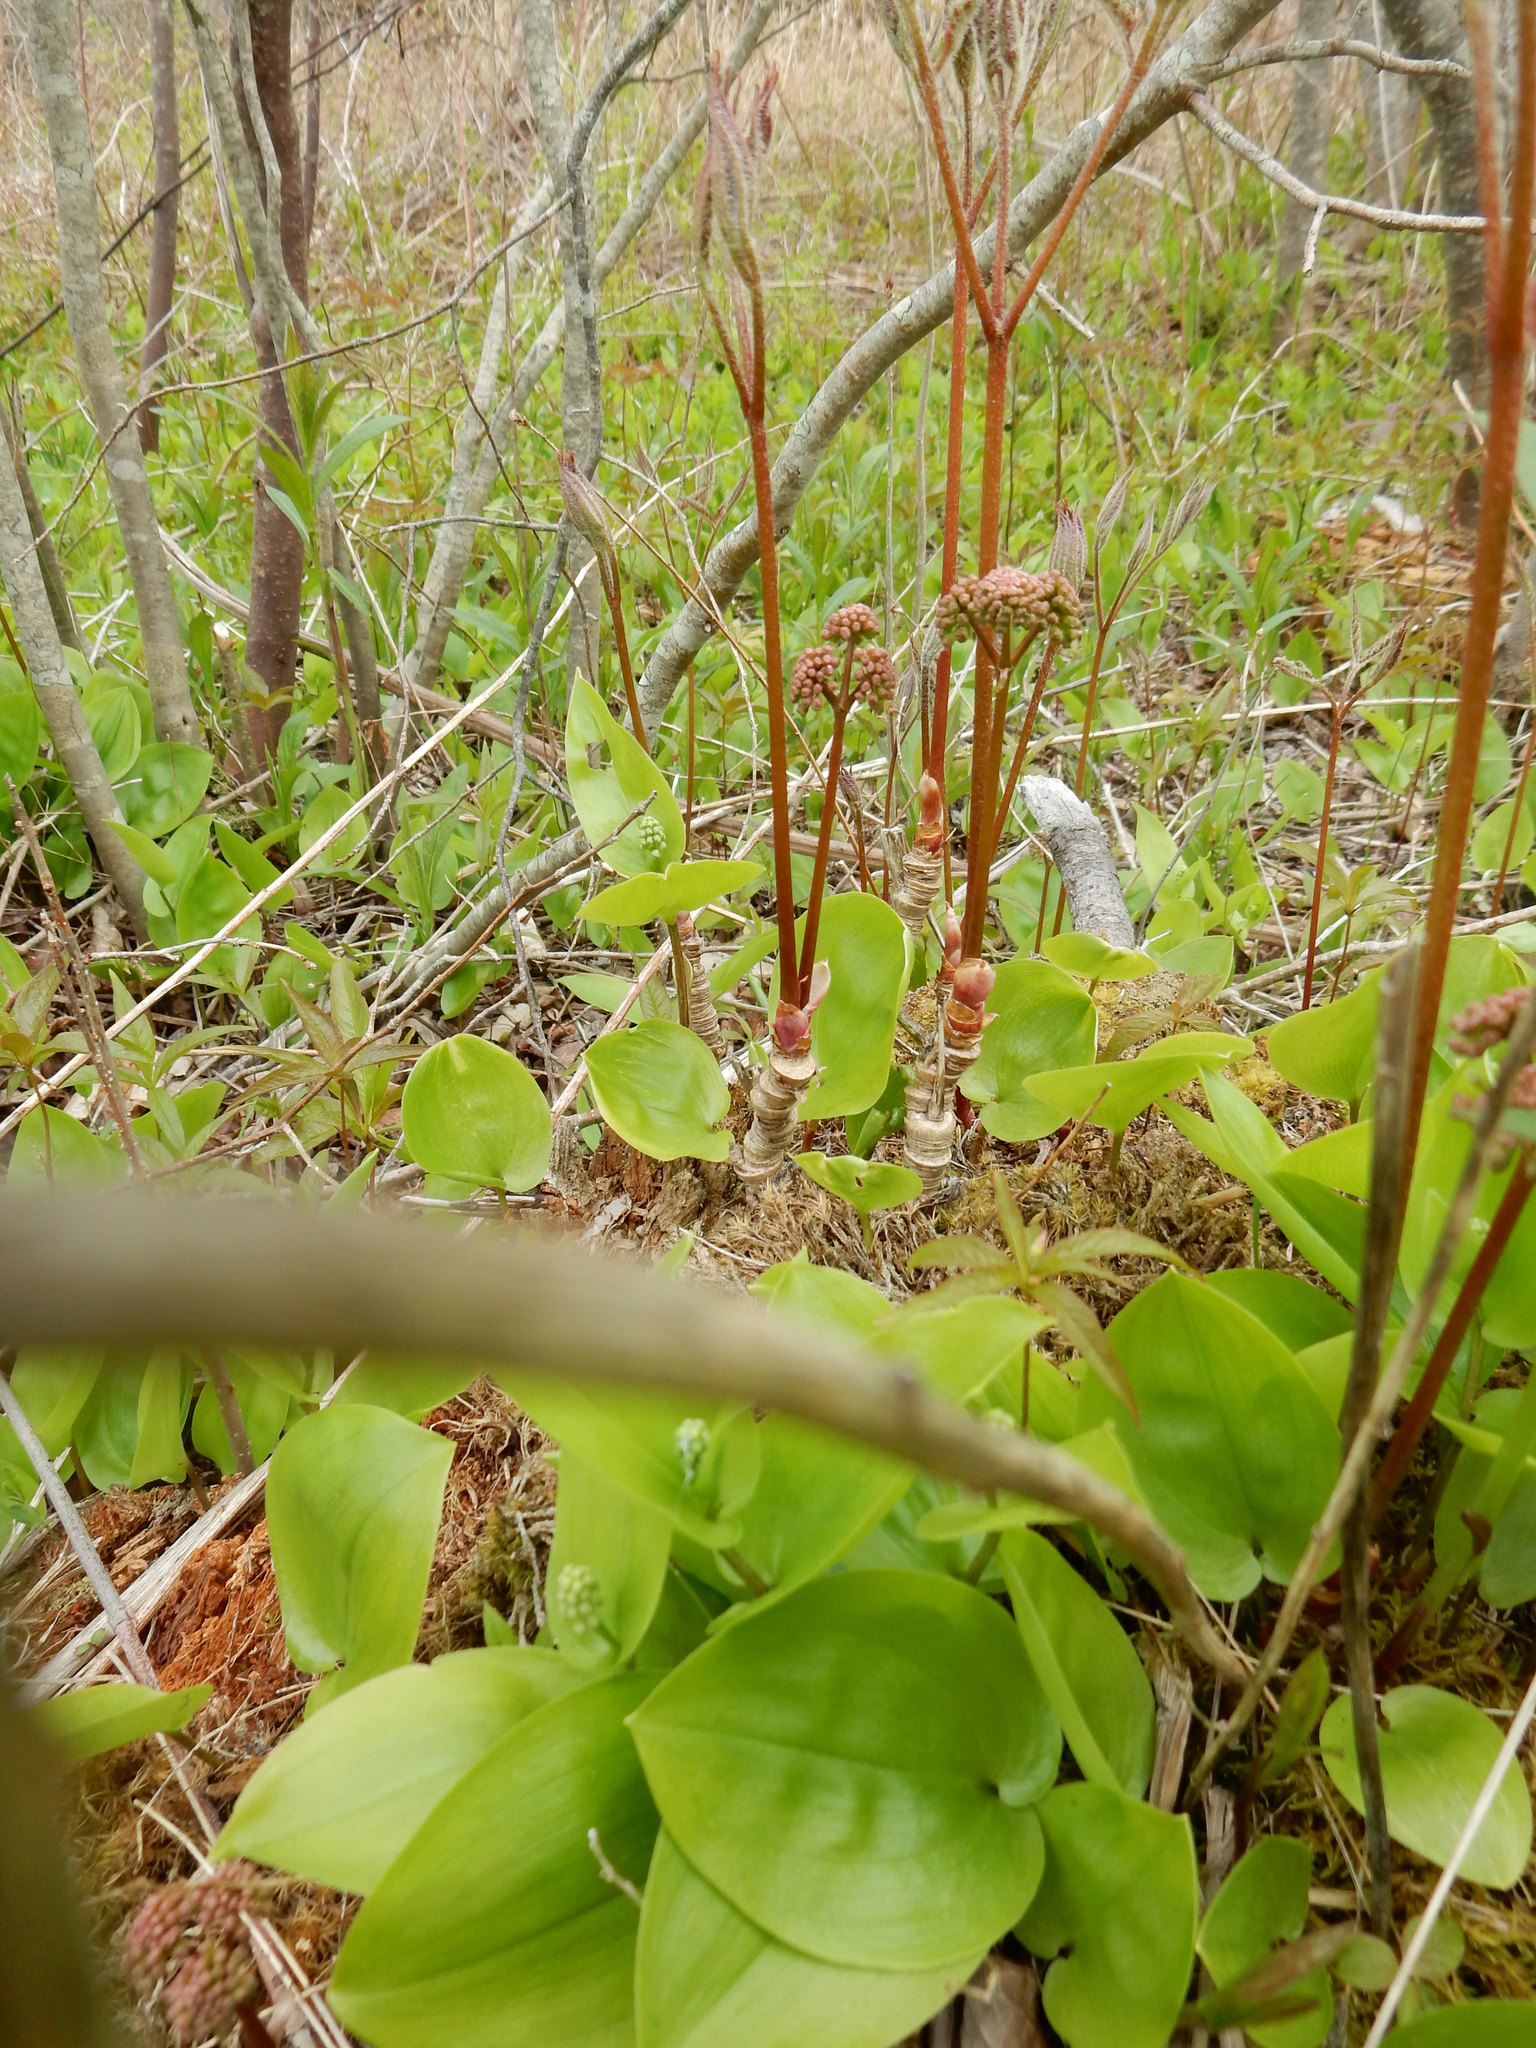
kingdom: Plantae
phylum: Tracheophyta
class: Magnoliopsida
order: Apiales
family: Araliaceae
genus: Aralia
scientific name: Aralia nudicaulis
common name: Wild sarsaparilla
